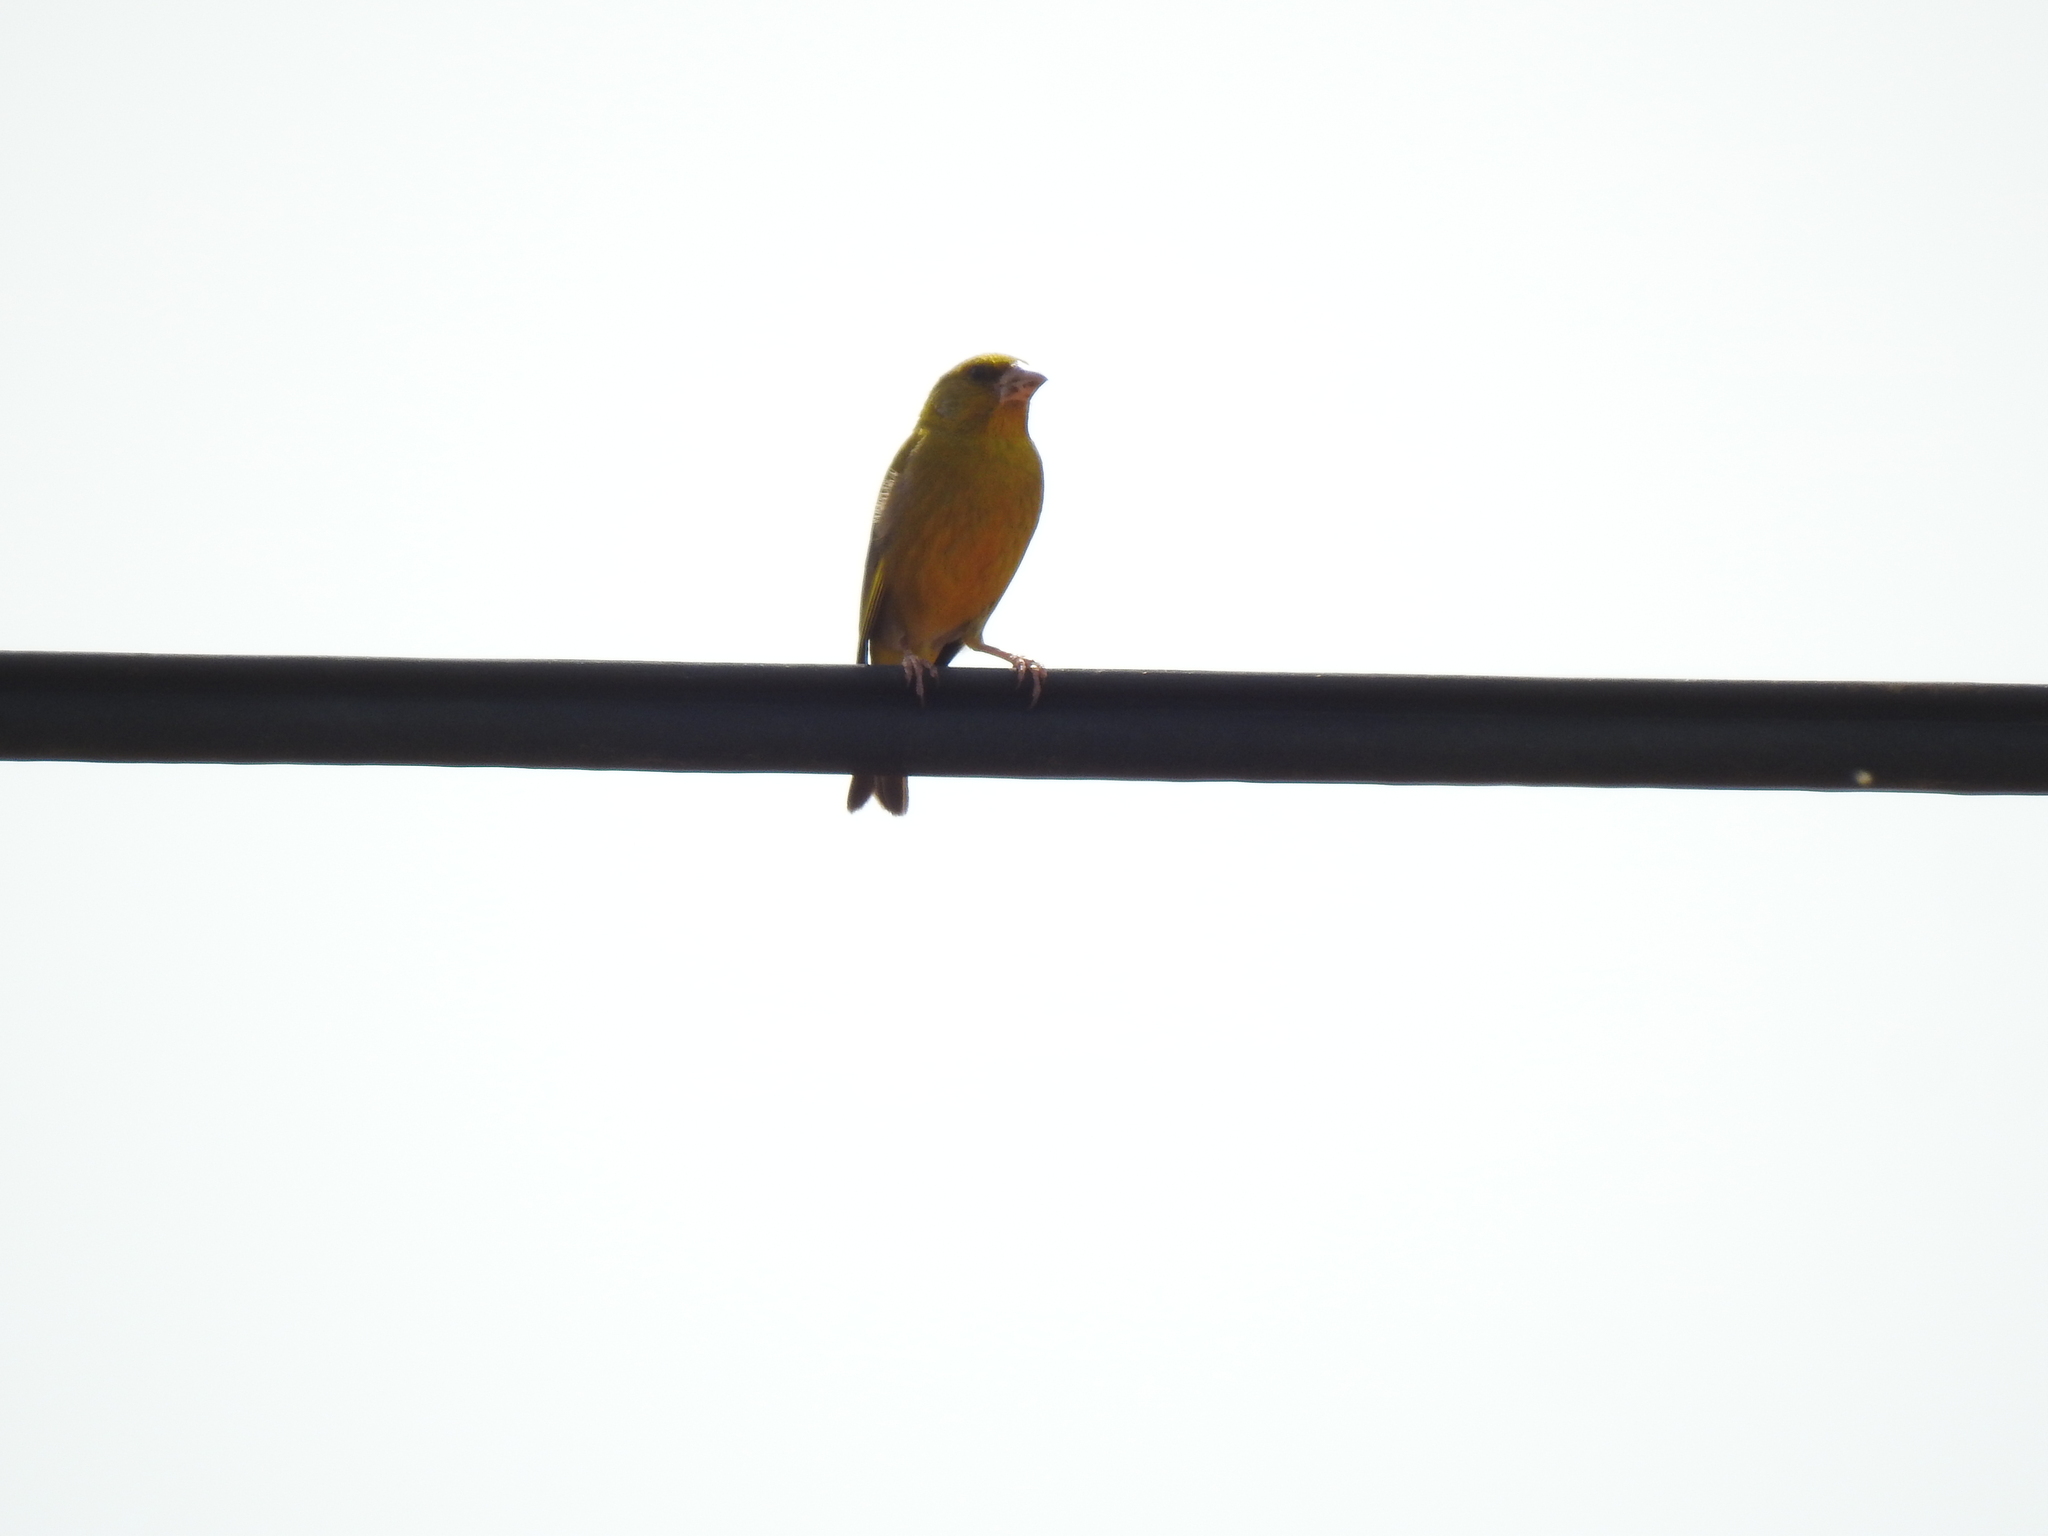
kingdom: Plantae
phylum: Tracheophyta
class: Liliopsida
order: Poales
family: Poaceae
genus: Chloris
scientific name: Chloris chloris
